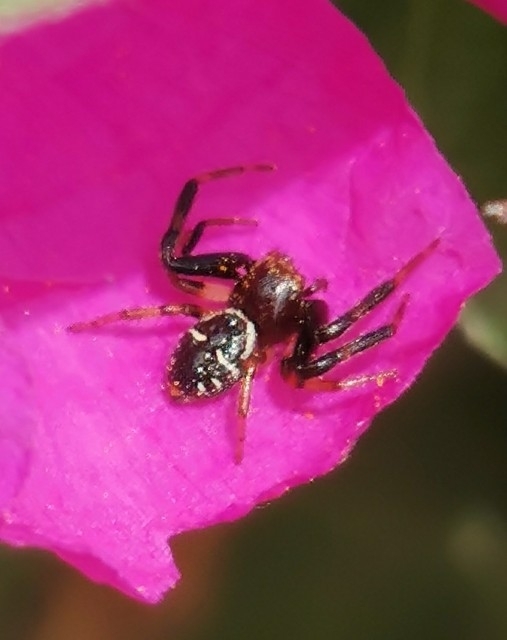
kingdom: Animalia
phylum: Arthropoda
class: Arachnida
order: Araneae
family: Thomisidae
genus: Synema
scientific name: Synema globosum
